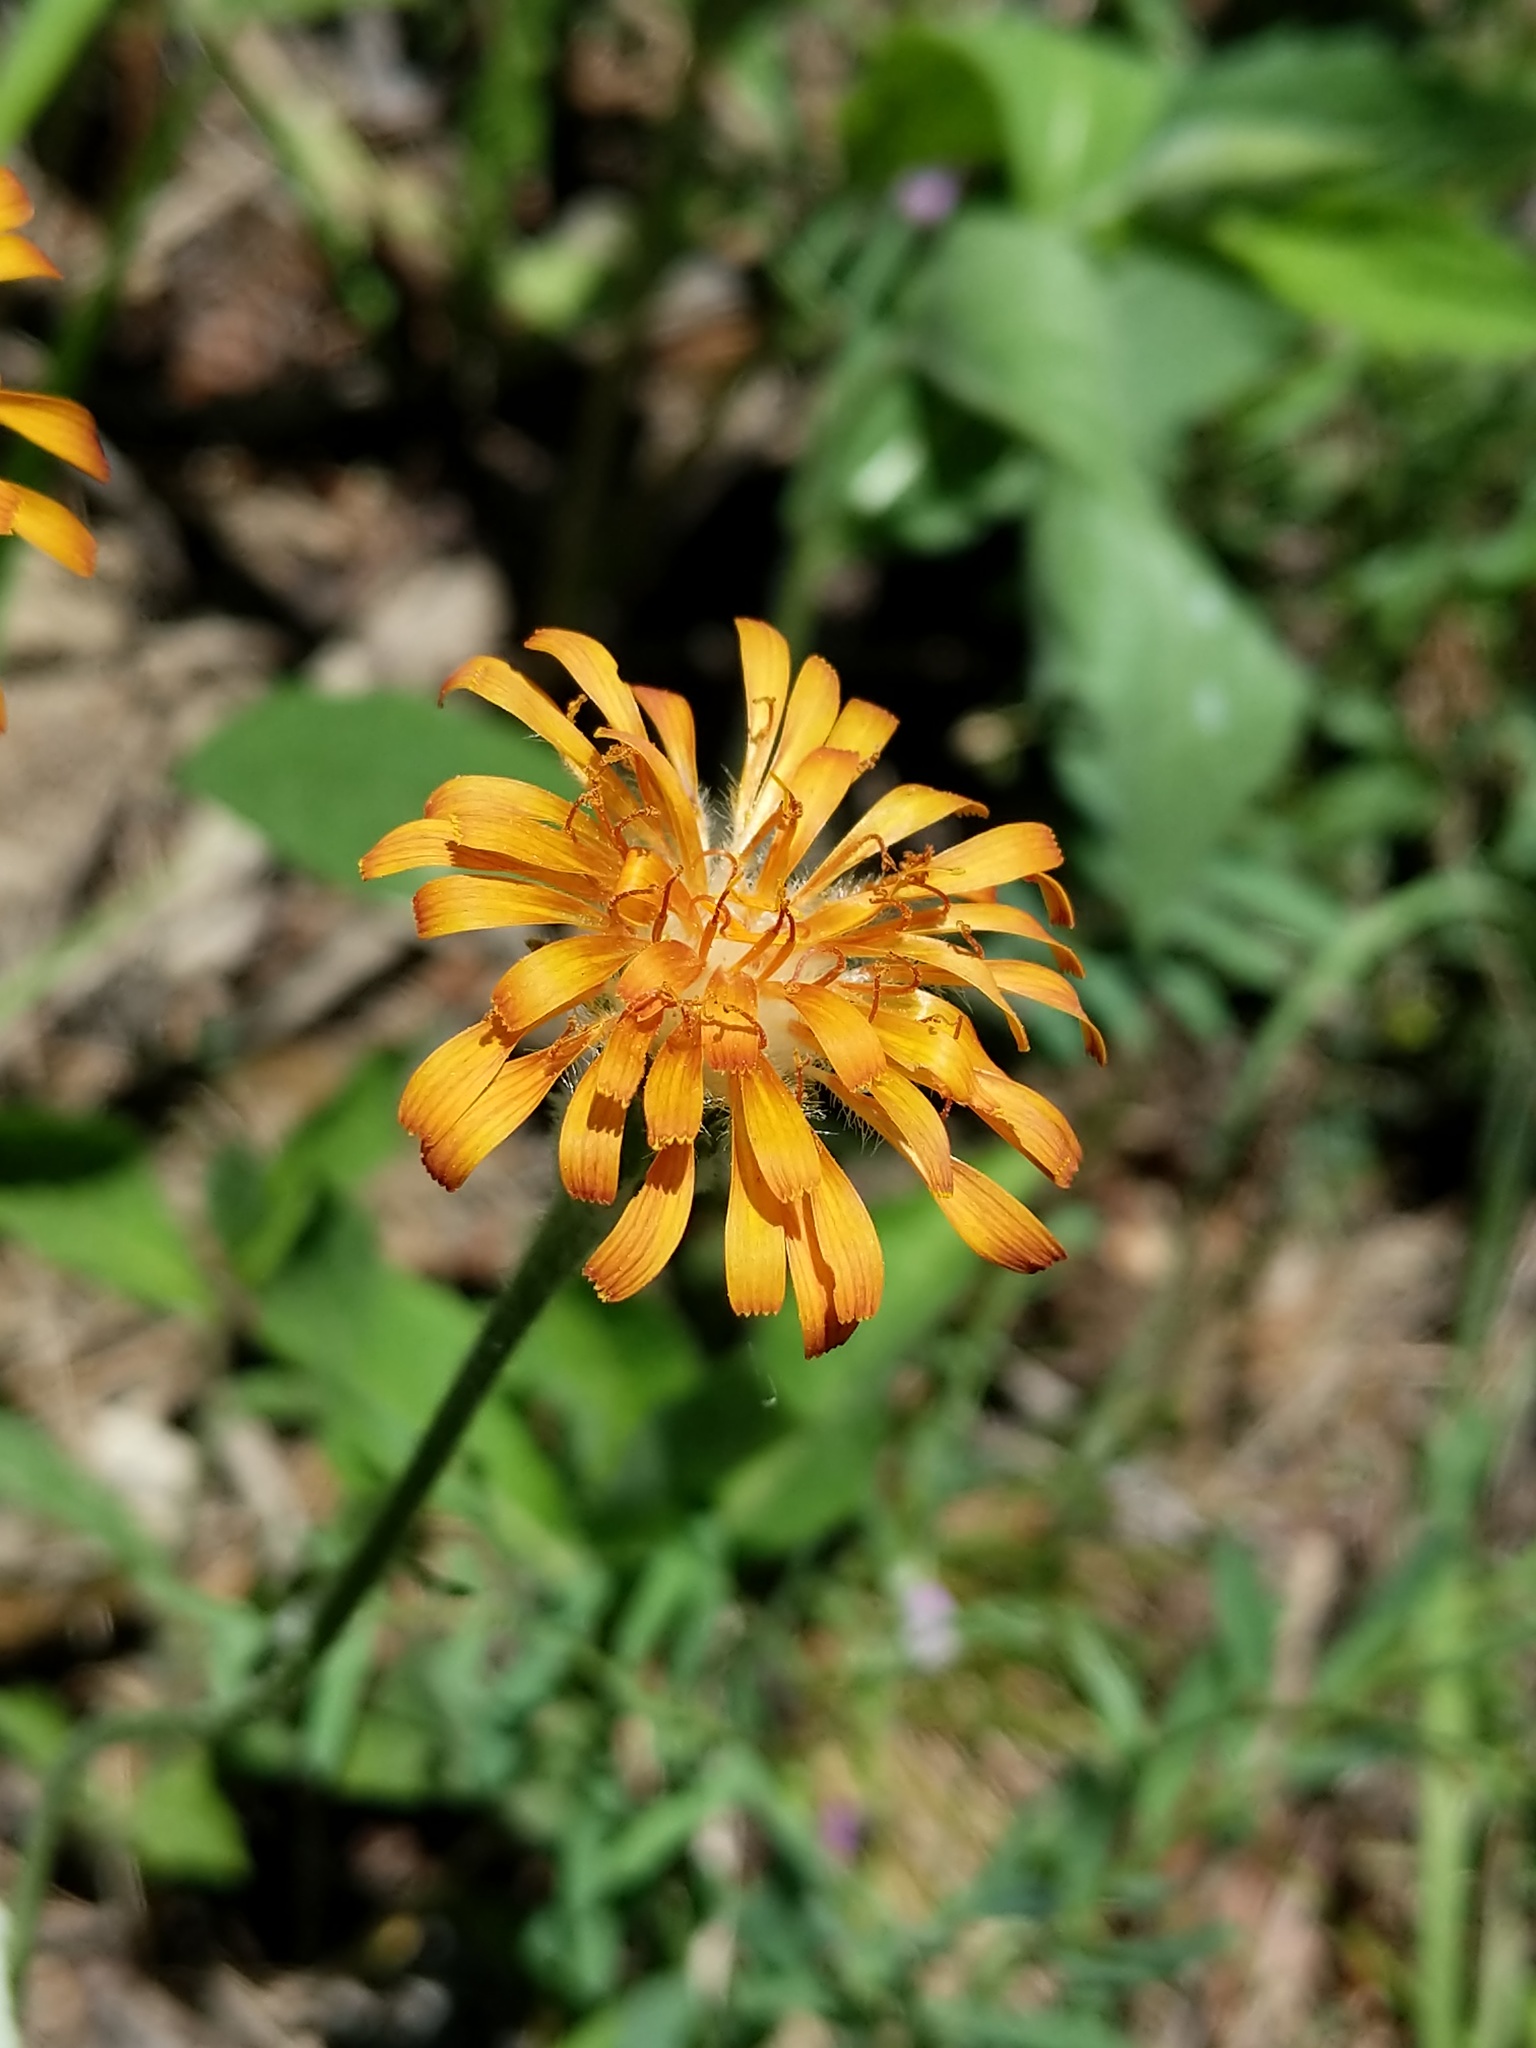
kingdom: Plantae
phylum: Tracheophyta
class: Magnoliopsida
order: Asterales
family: Asteraceae
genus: Agoseris
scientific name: Agoseris aurantiaca
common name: Mountain agoseris
